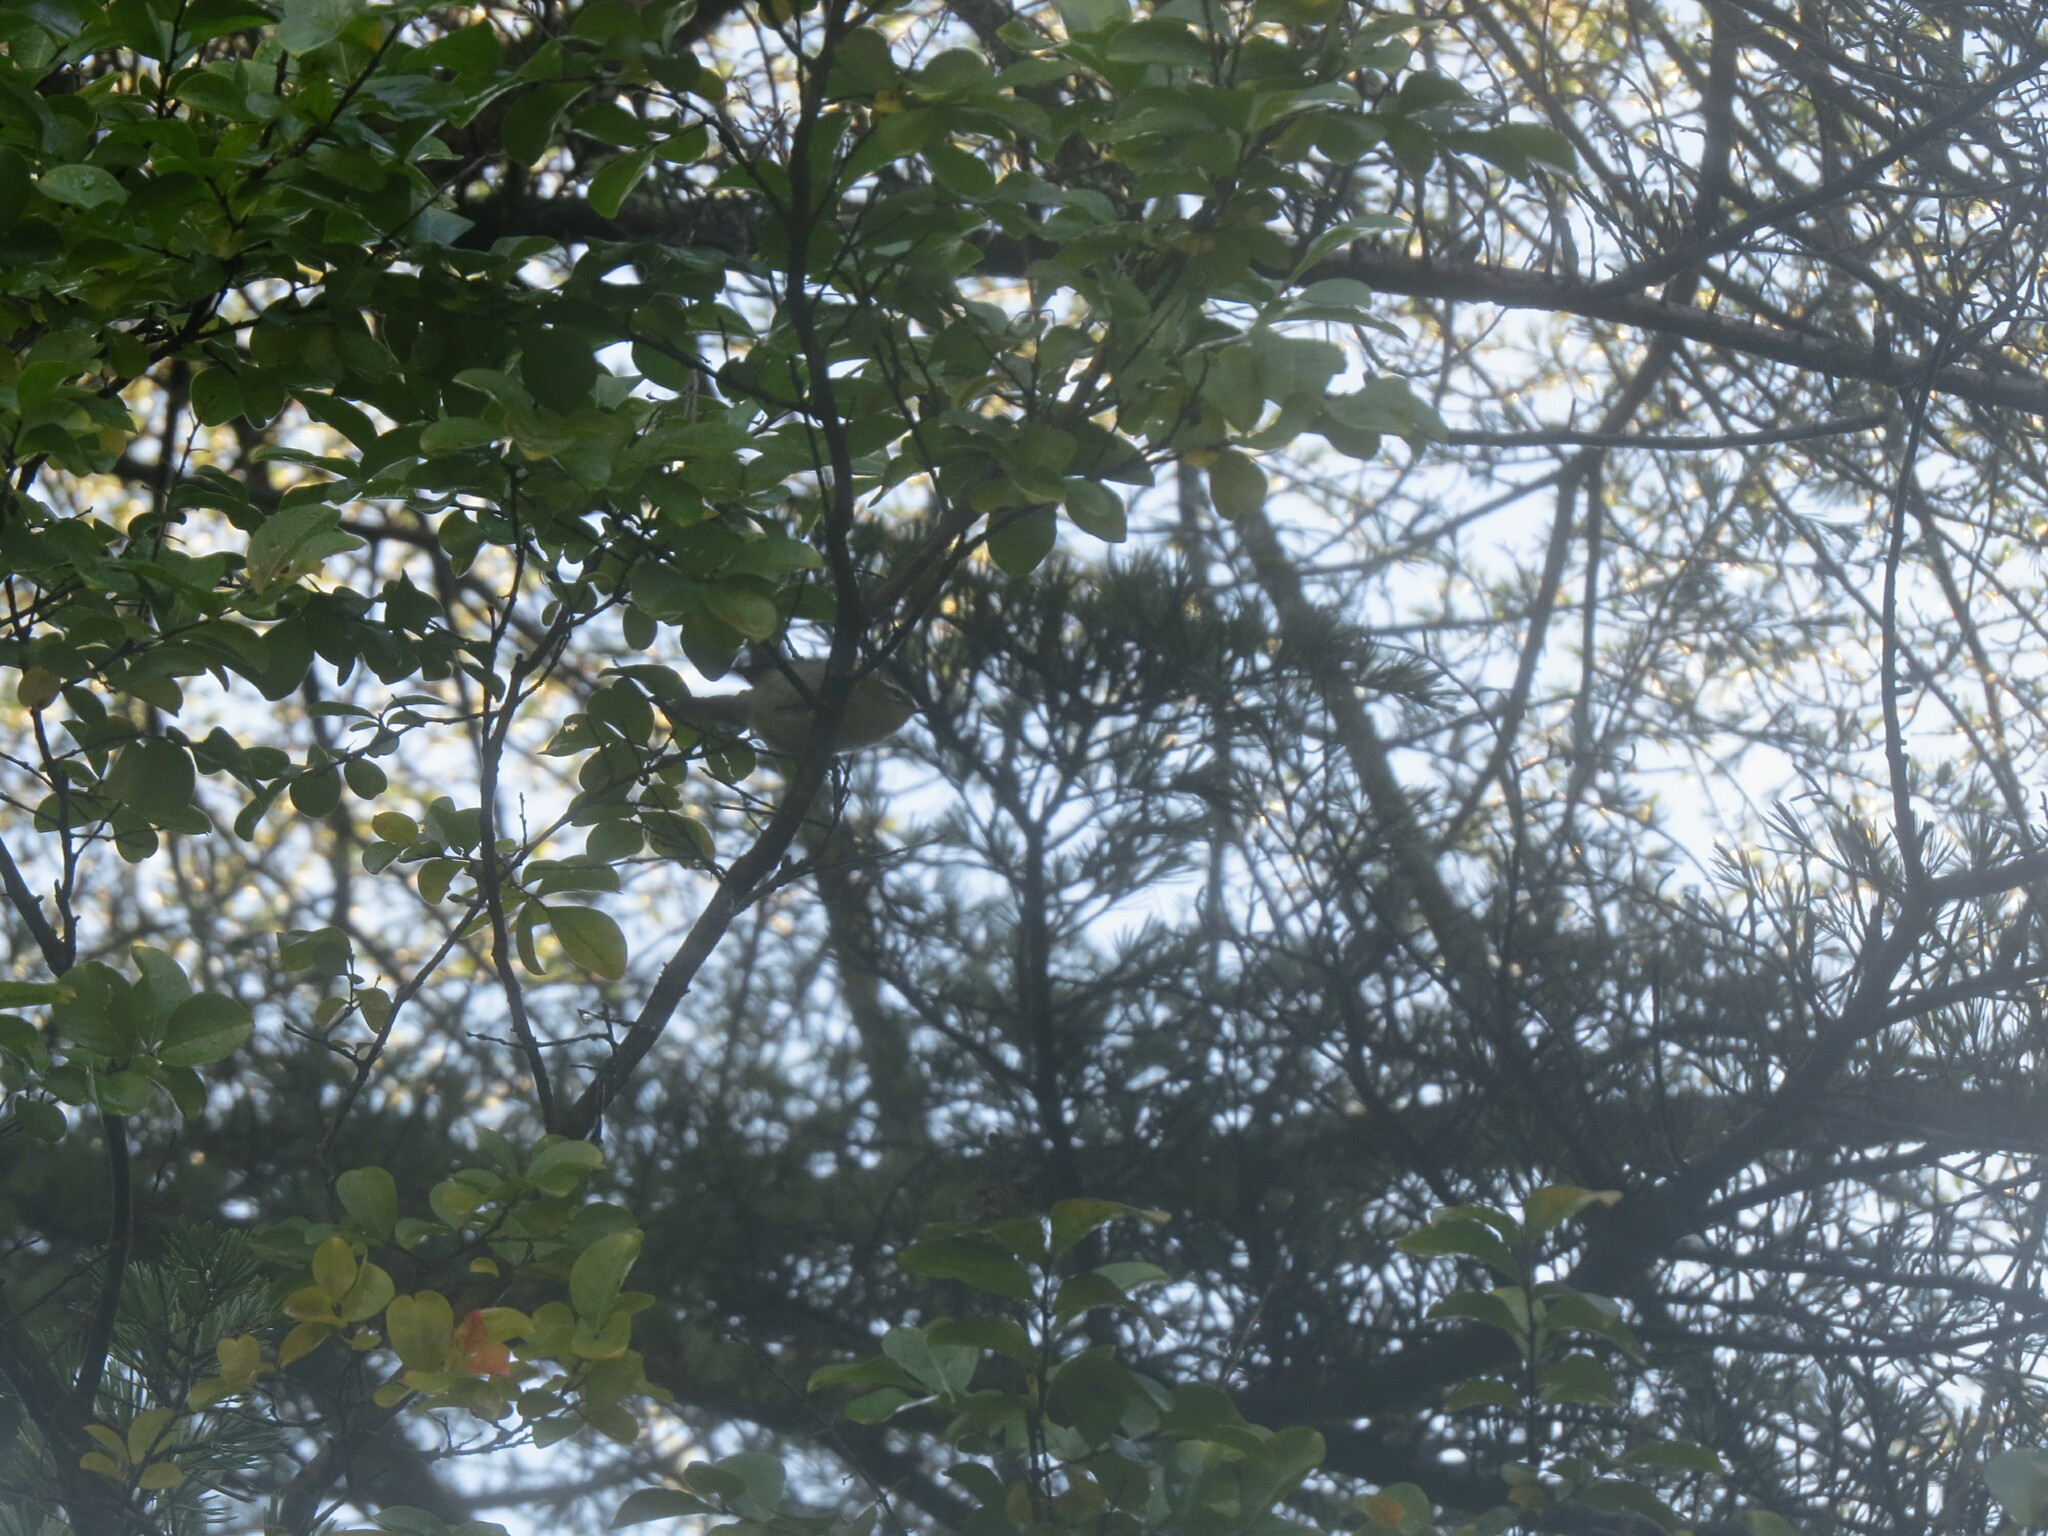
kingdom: Animalia
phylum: Chordata
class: Aves
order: Passeriformes
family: Regulidae
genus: Regulus
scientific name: Regulus ignicapilla
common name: Firecrest
